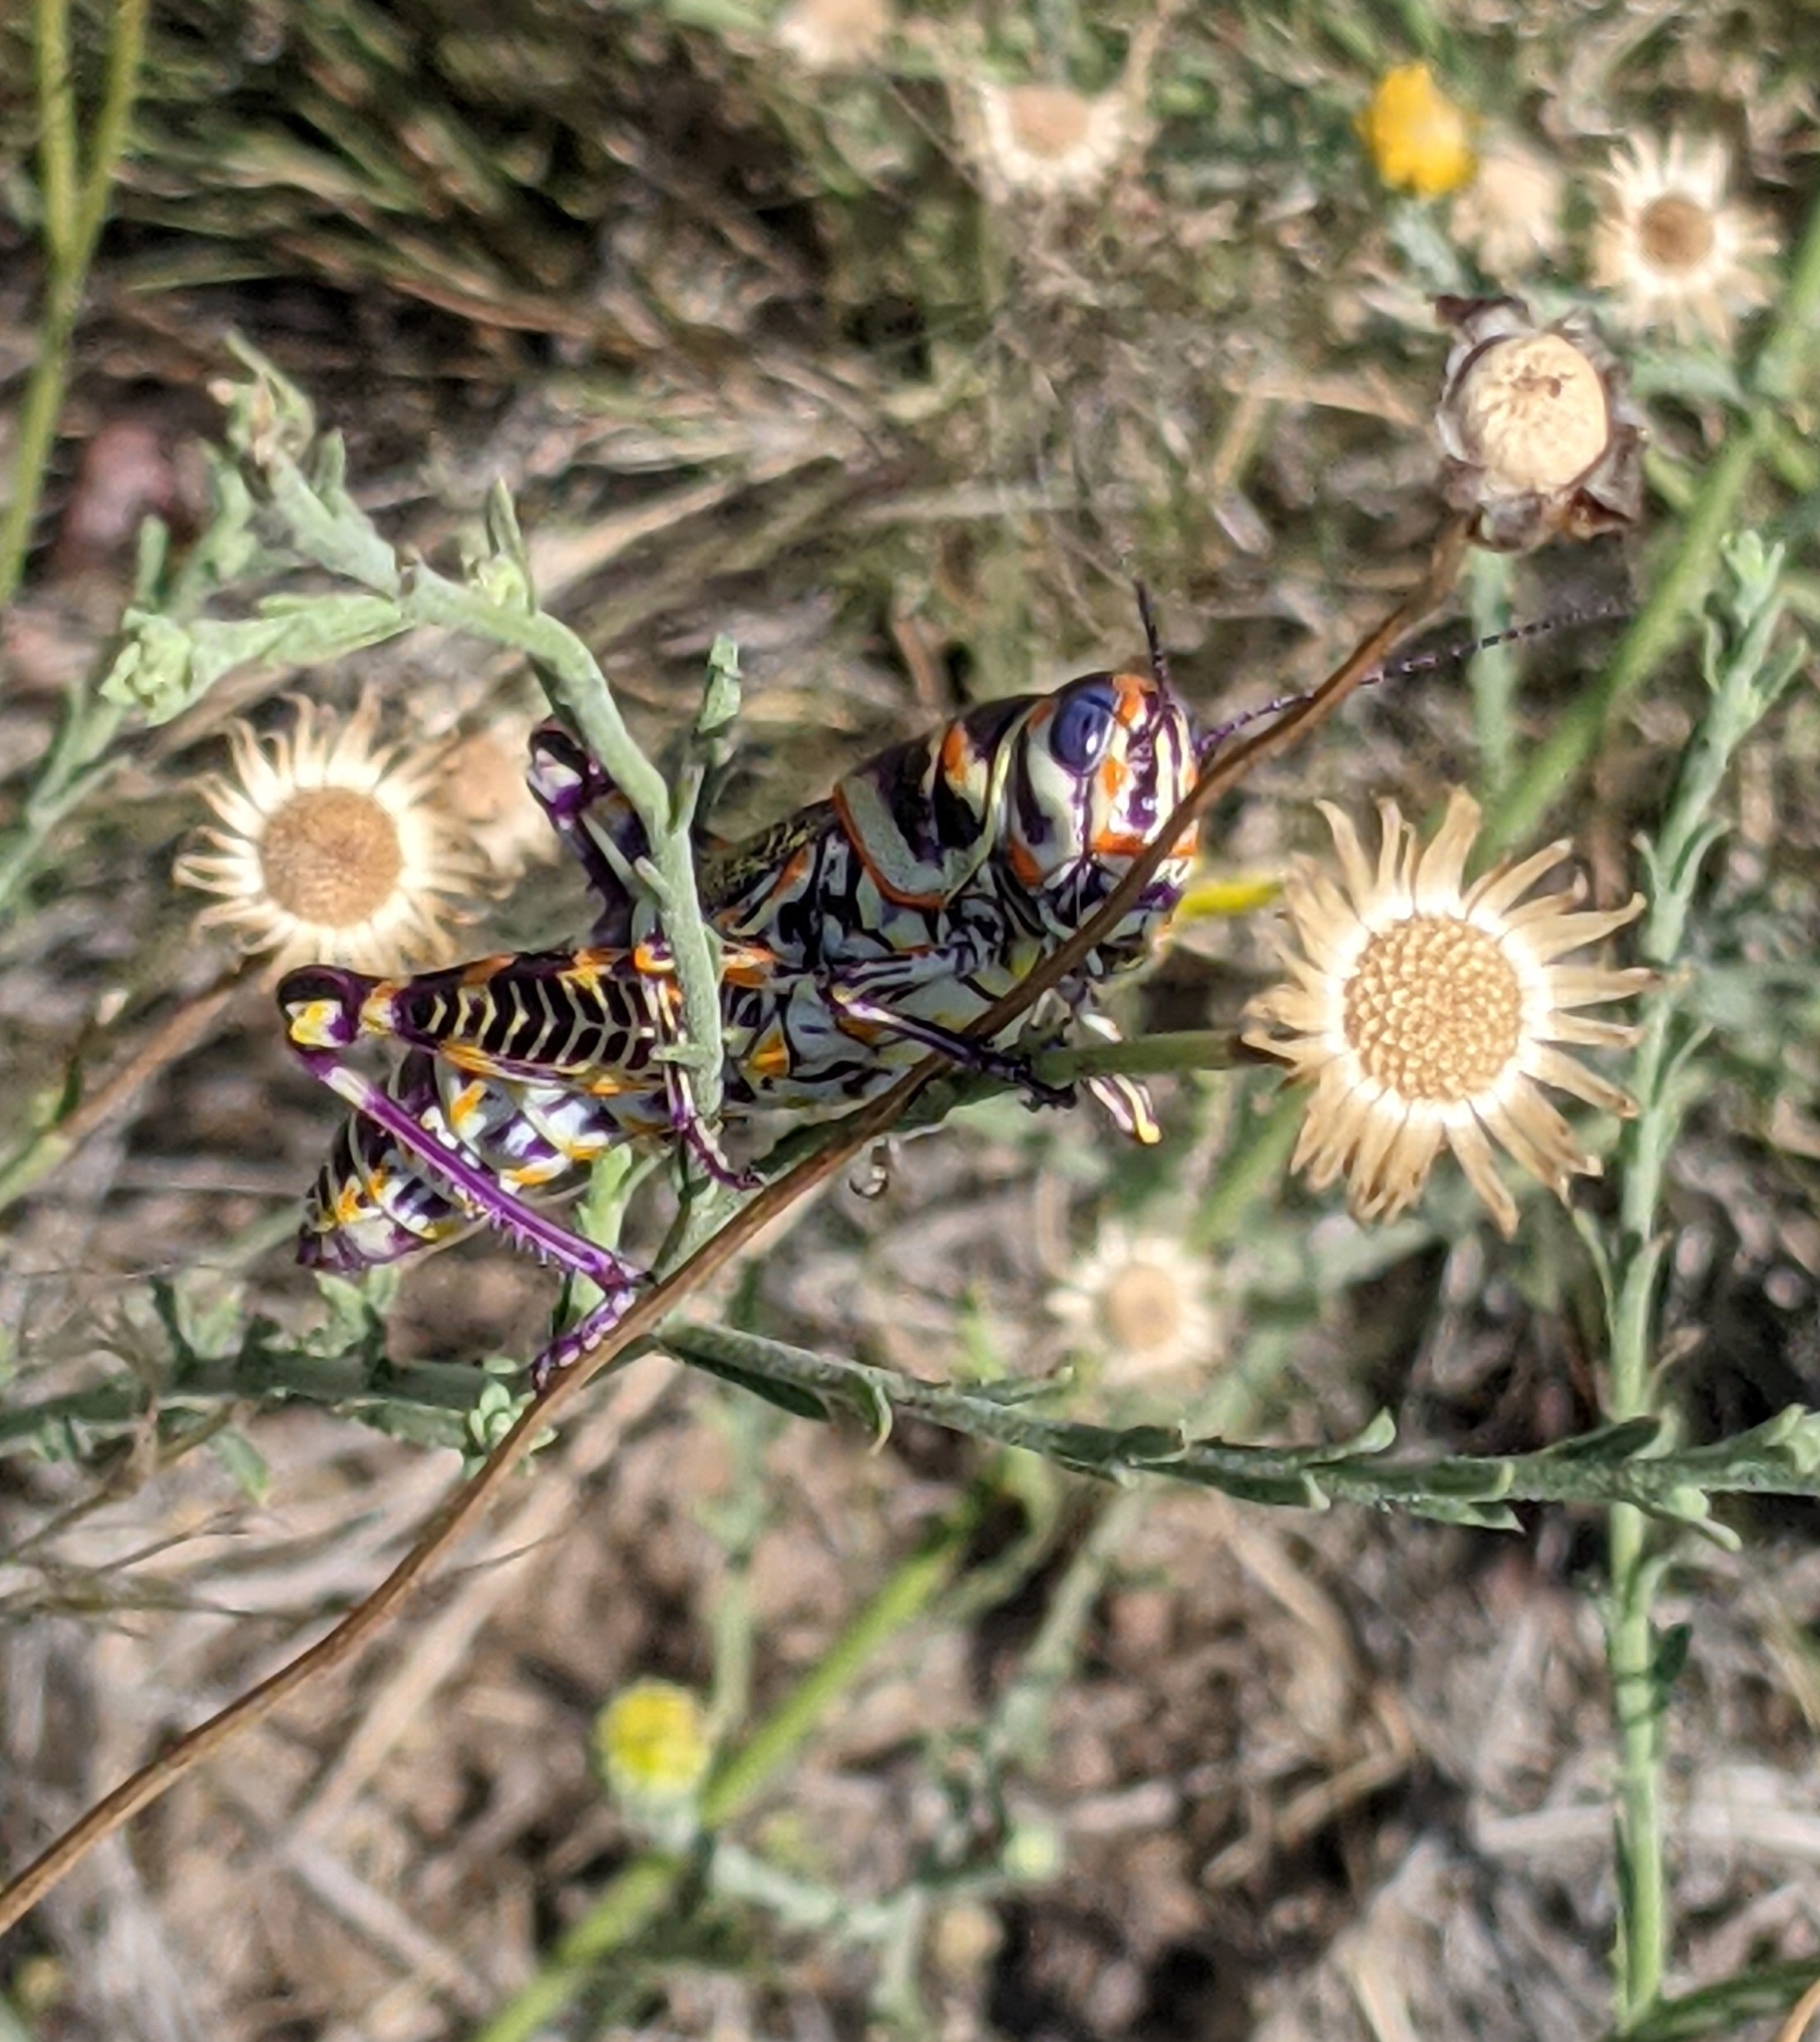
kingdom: Animalia
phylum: Arthropoda
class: Insecta
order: Orthoptera
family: Acrididae
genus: Dactylotum
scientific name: Dactylotum bicolor
